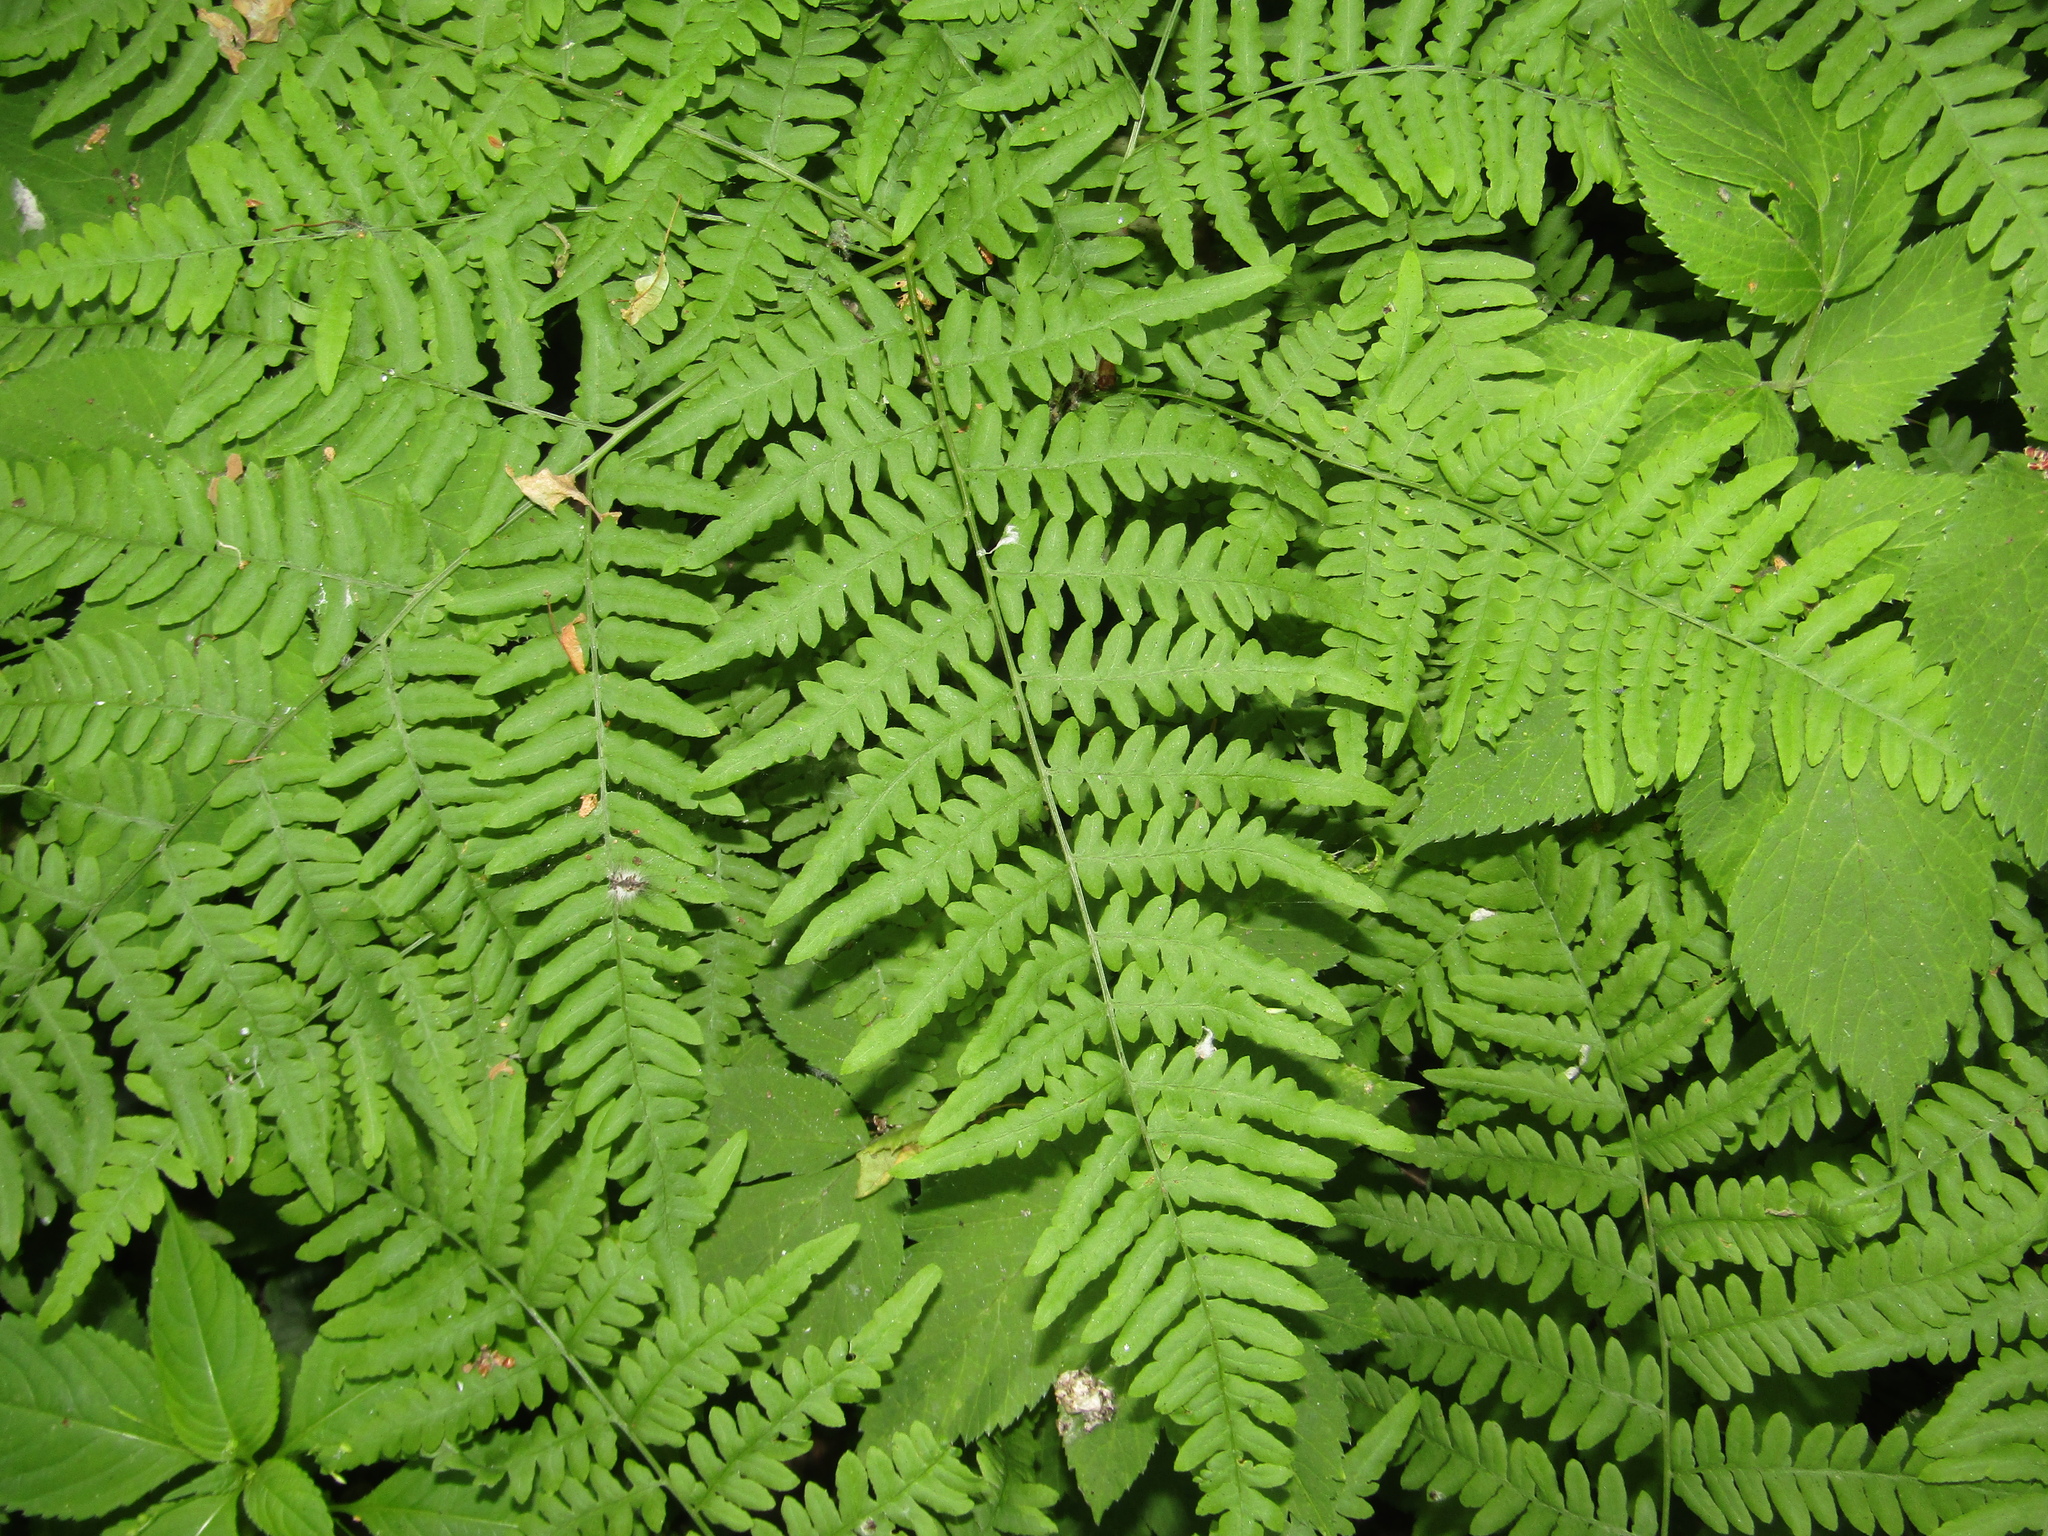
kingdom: Plantae
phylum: Tracheophyta
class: Polypodiopsida
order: Polypodiales
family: Dennstaedtiaceae
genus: Pteridium
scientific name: Pteridium aquilinum
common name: Bracken
